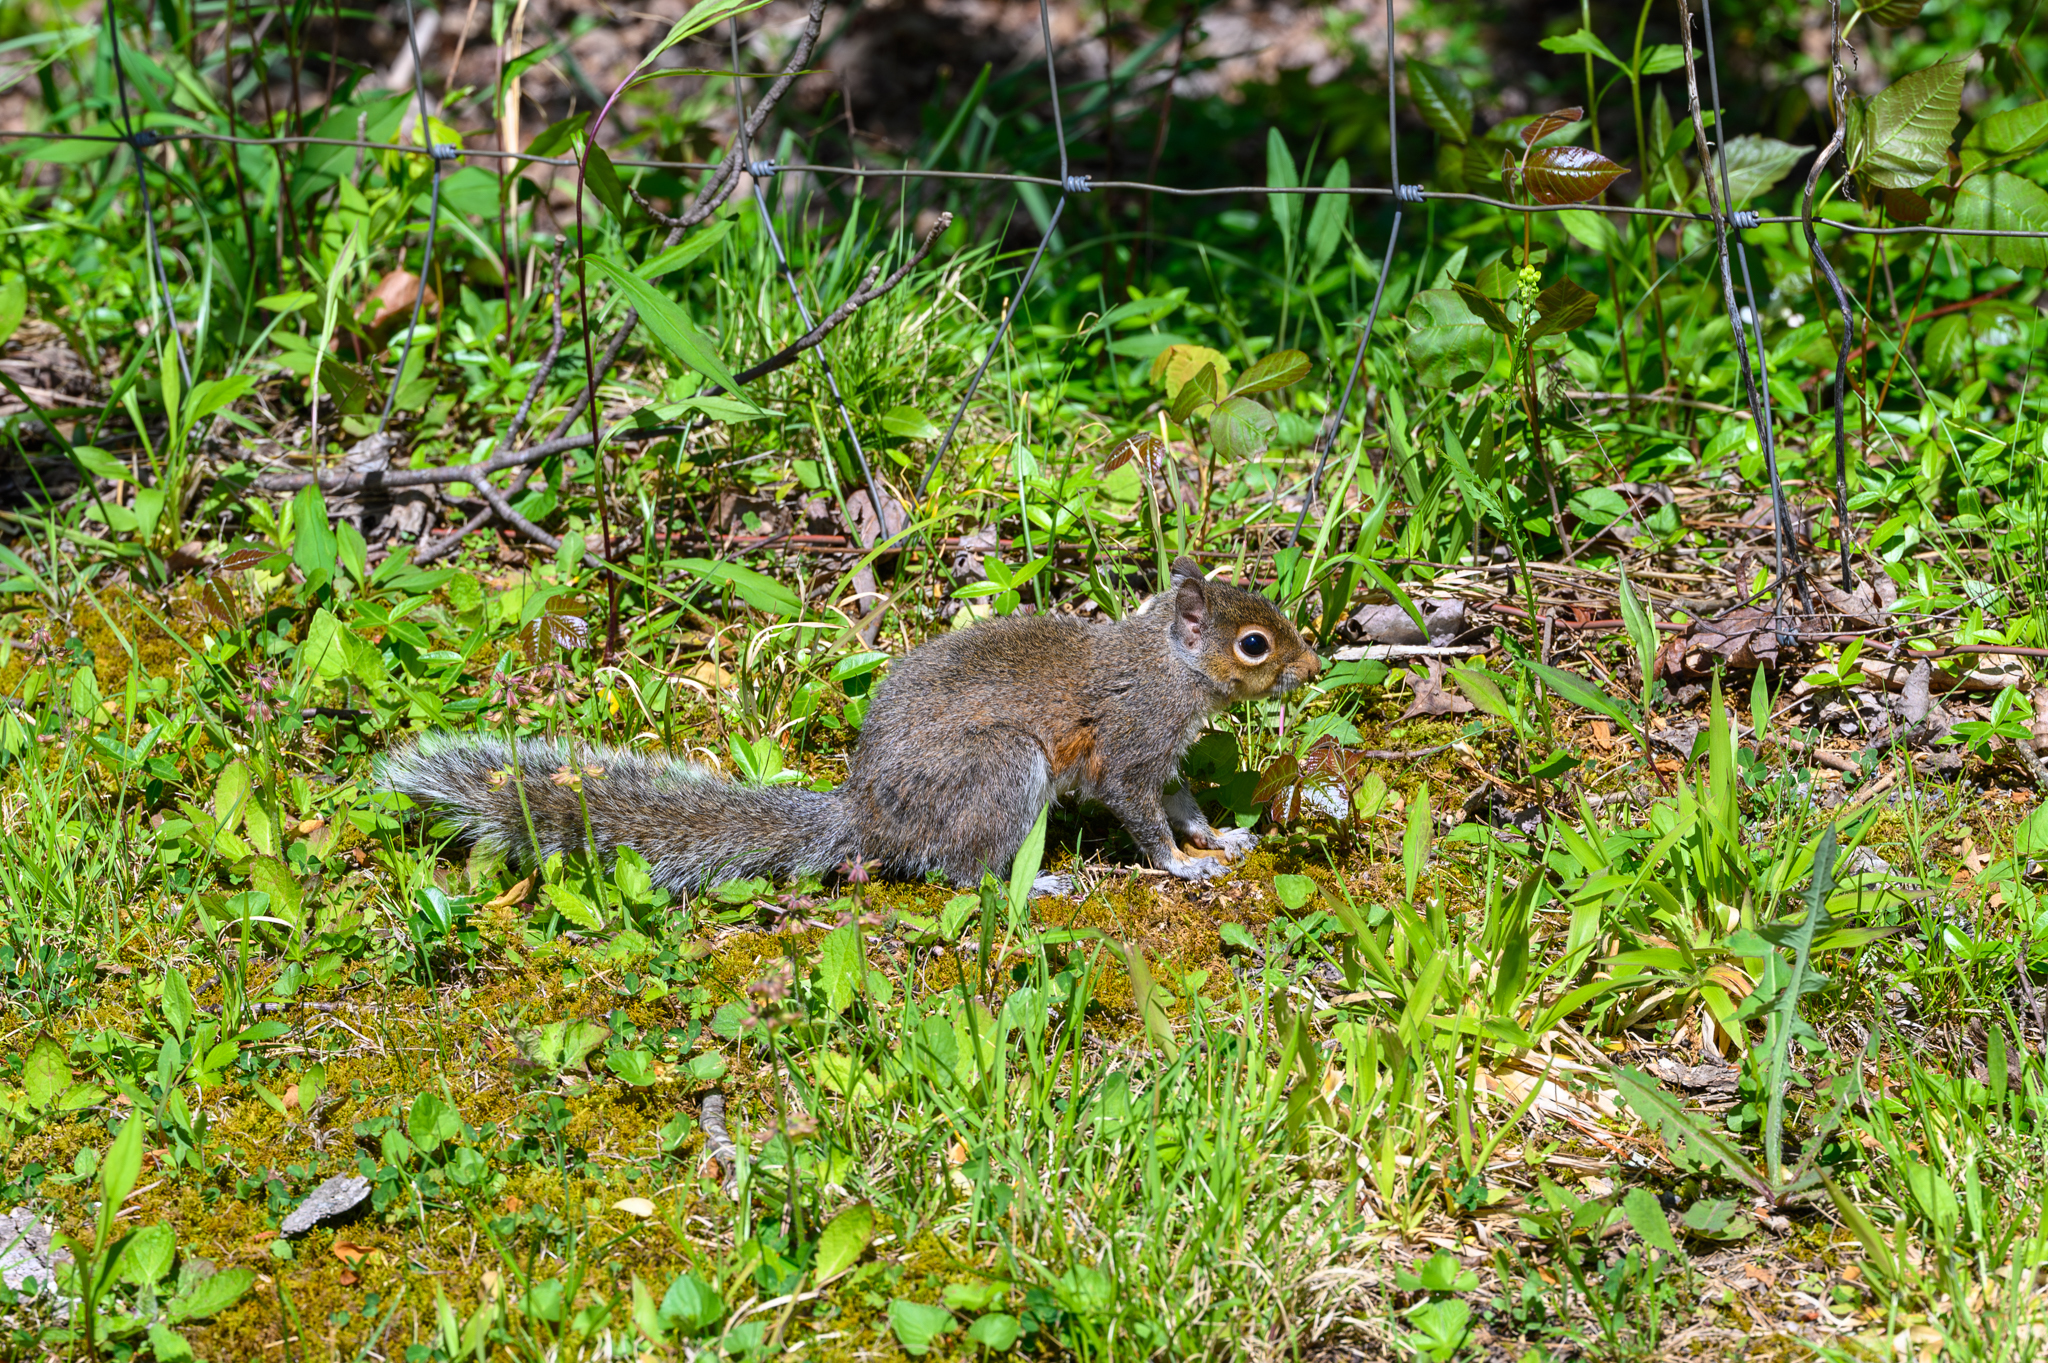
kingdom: Animalia
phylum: Chordata
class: Mammalia
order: Rodentia
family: Sciuridae
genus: Sciurus
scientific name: Sciurus carolinensis
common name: Eastern gray squirrel
